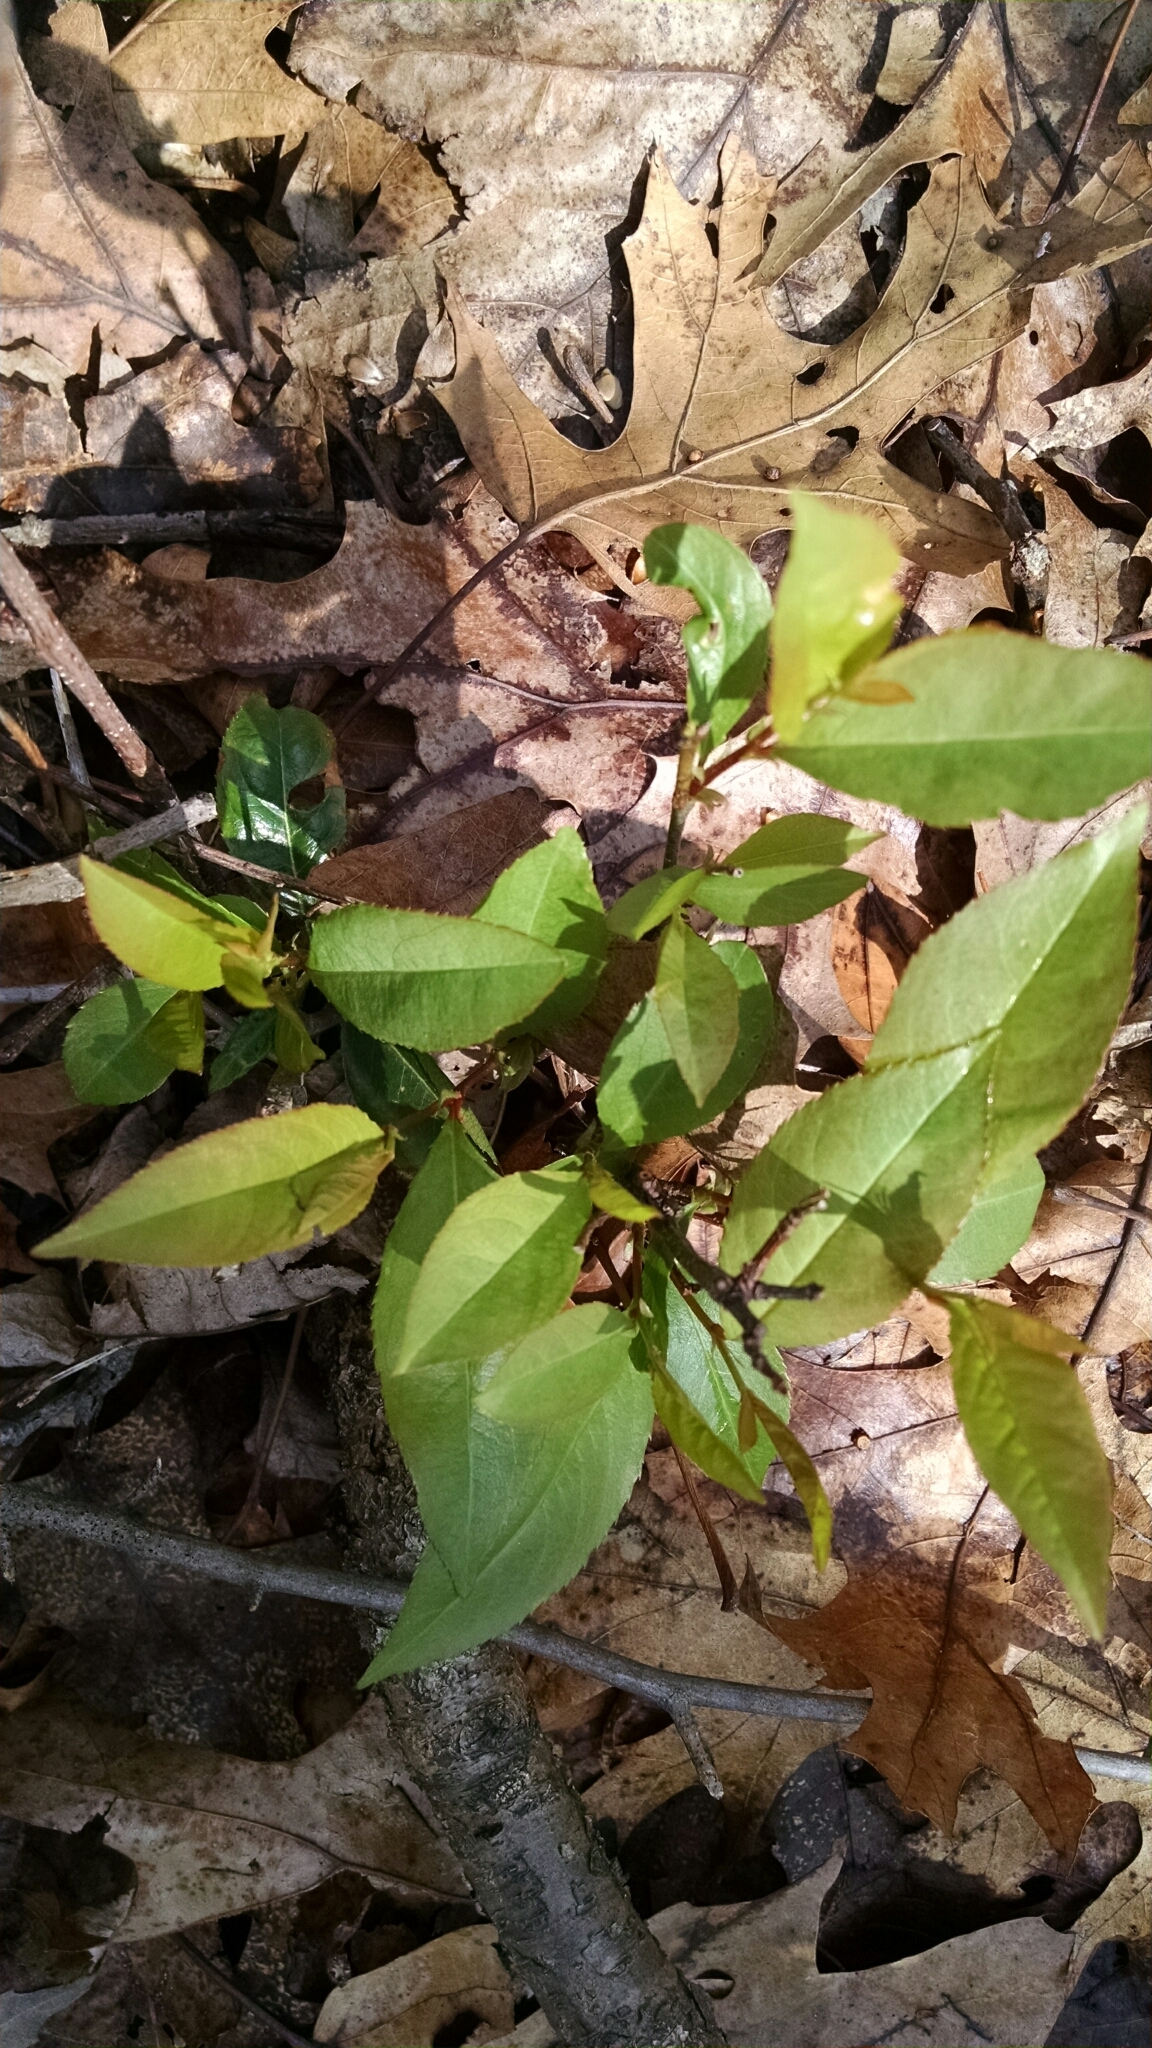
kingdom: Plantae
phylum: Tracheophyta
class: Magnoliopsida
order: Rosales
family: Rosaceae
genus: Prunus
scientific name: Prunus serotina
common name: Black cherry
